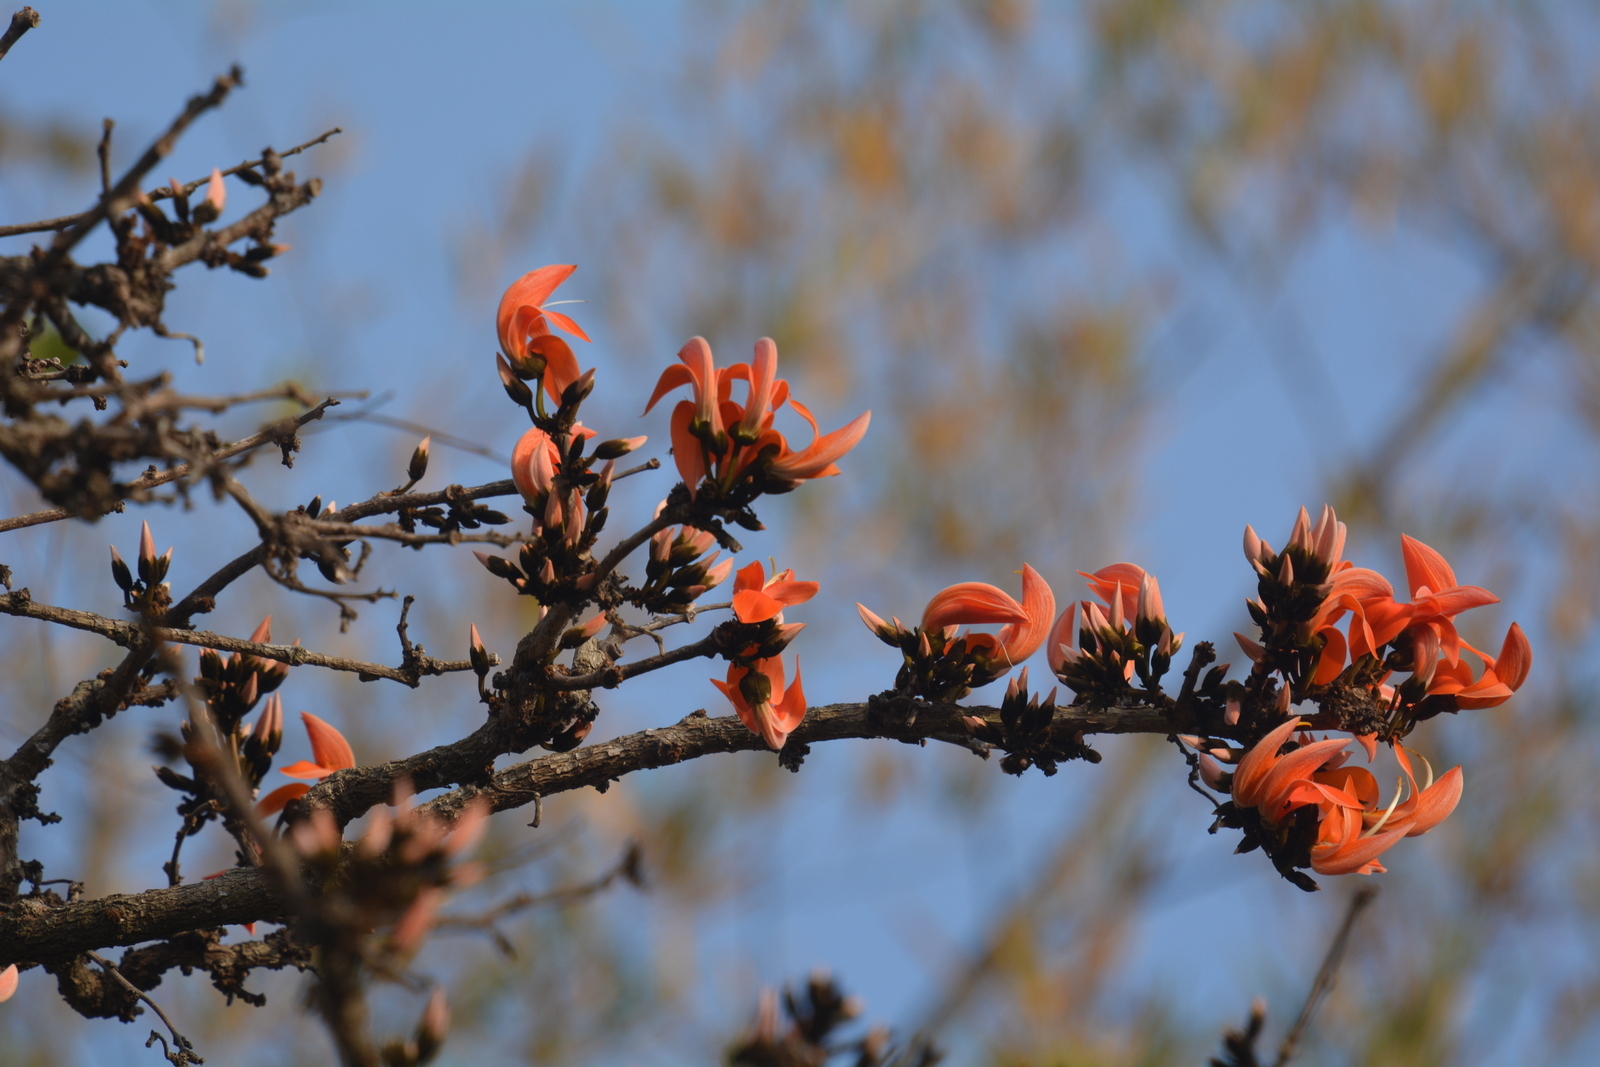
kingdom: Plantae
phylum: Tracheophyta
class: Magnoliopsida
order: Fabales
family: Fabaceae
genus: Butea
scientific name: Butea monosperma
